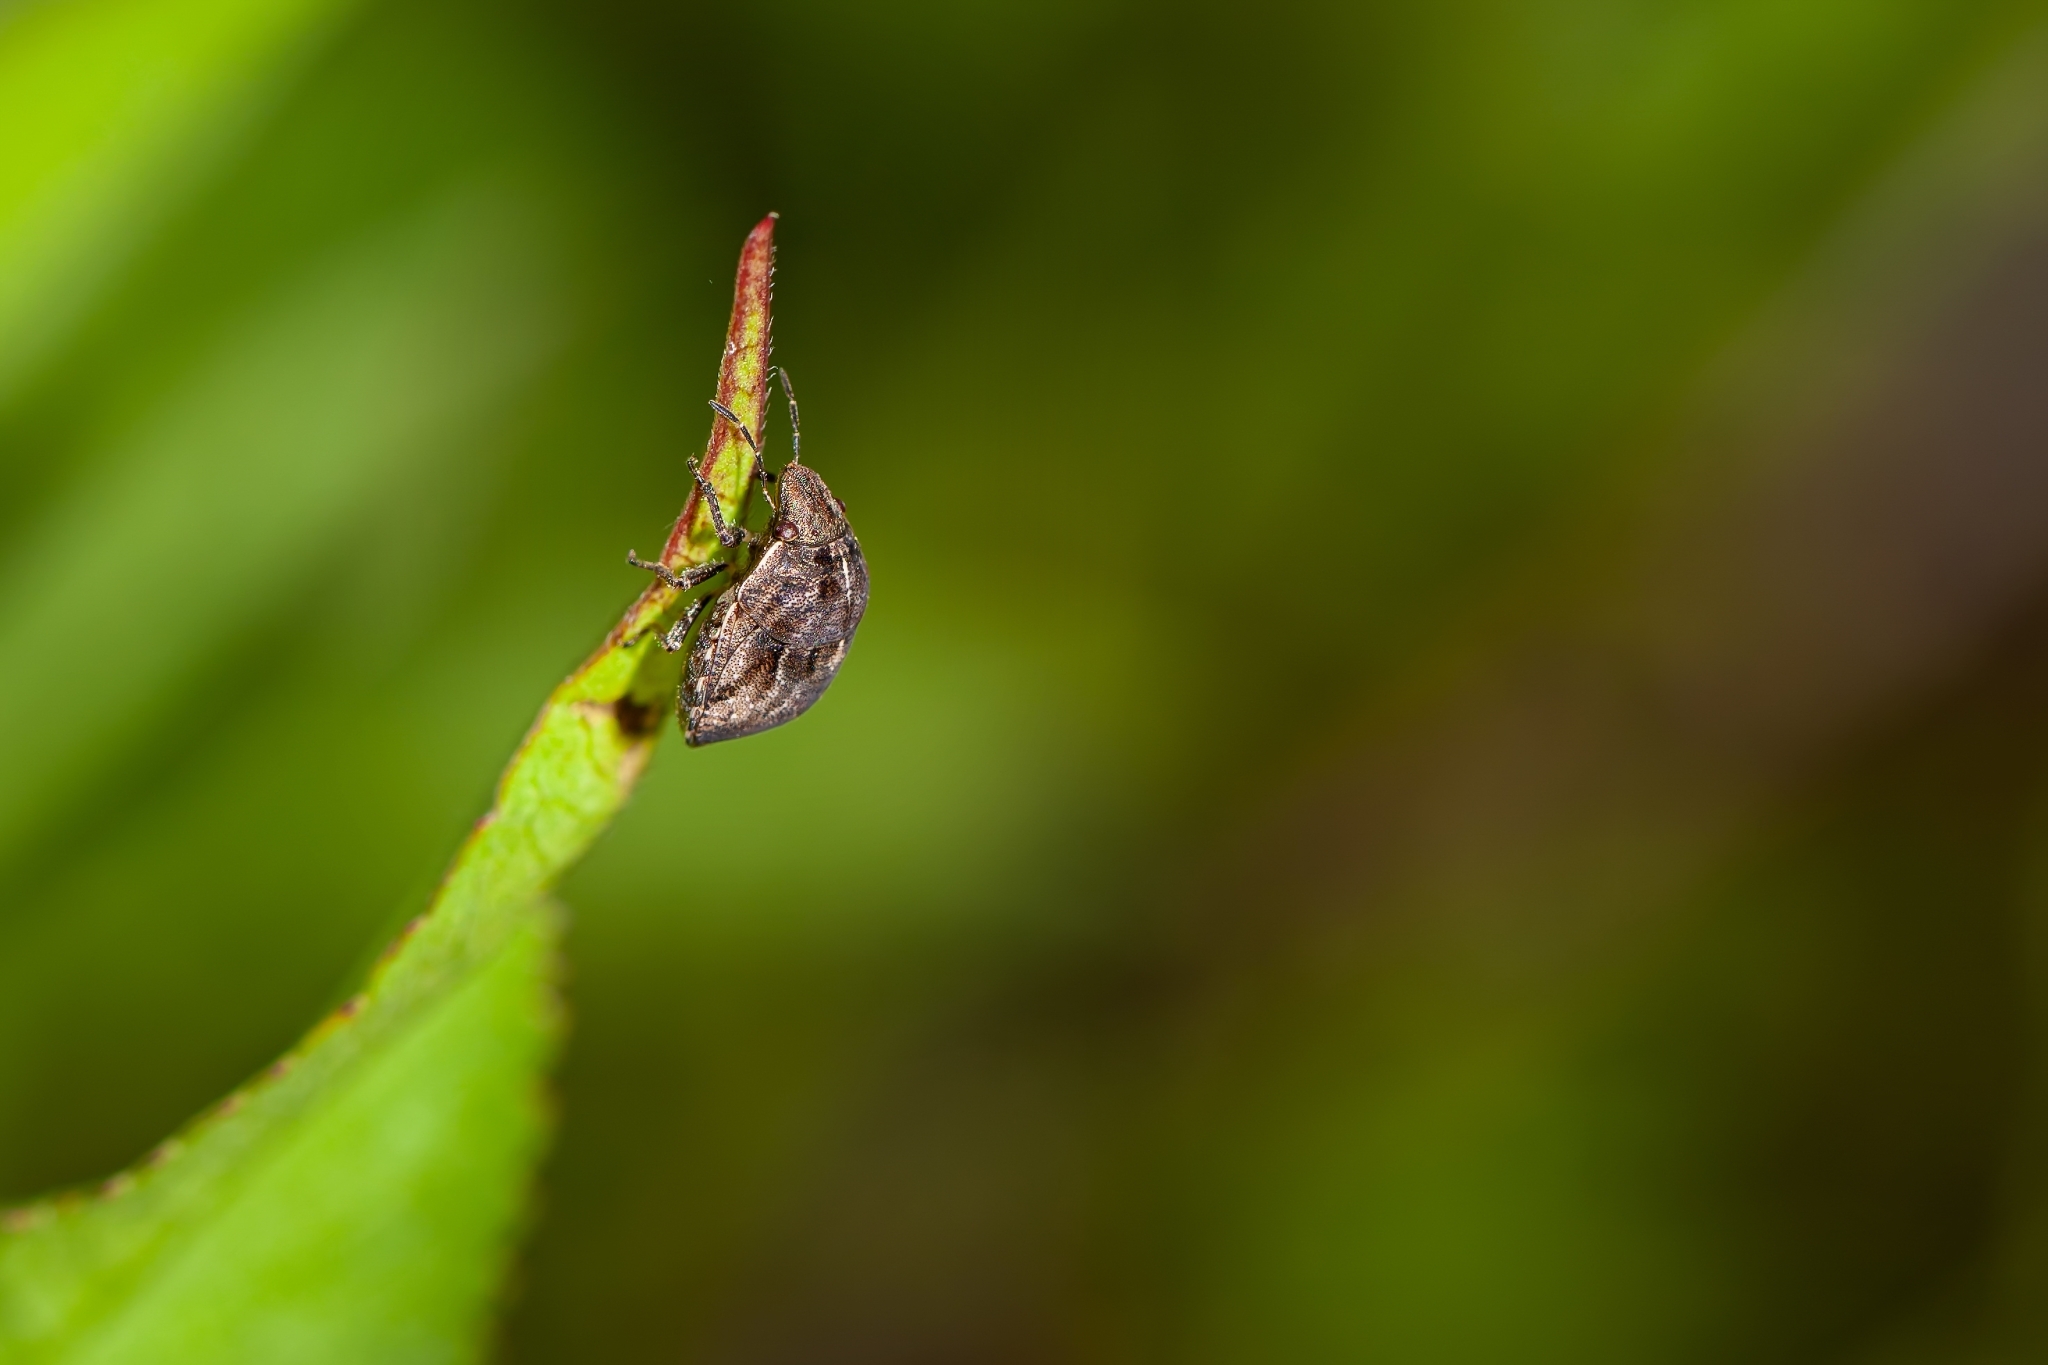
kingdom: Animalia
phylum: Arthropoda
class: Insecta
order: Hemiptera
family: Scutelleridae
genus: Homaemus
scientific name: Homaemus proteus
